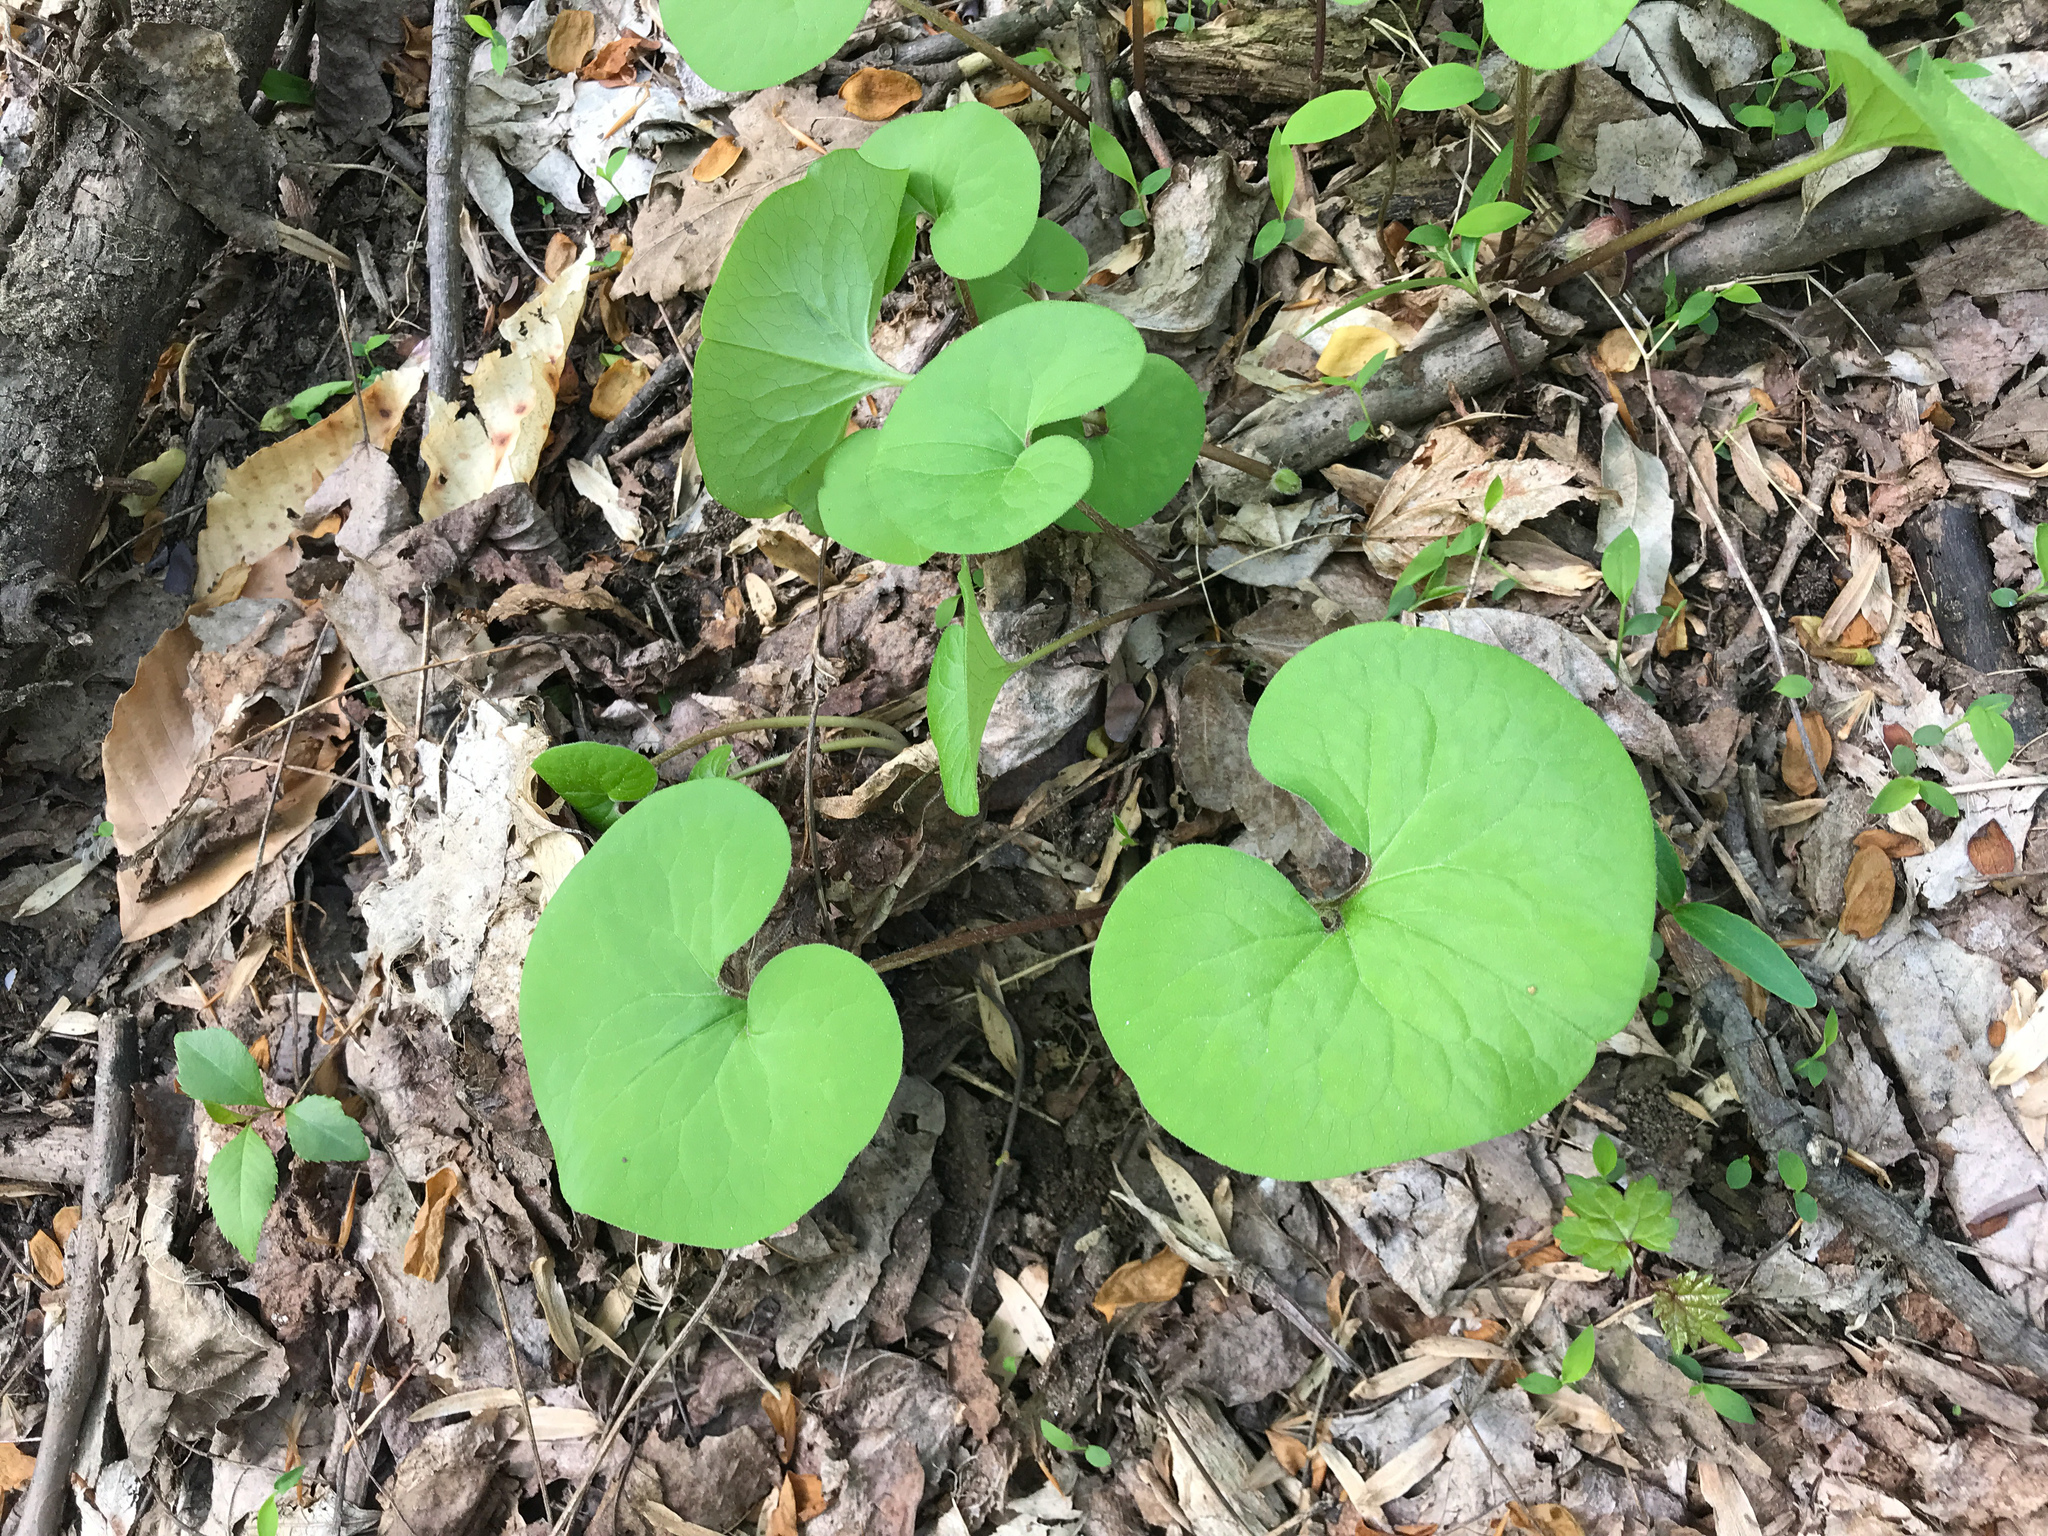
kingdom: Plantae
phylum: Tracheophyta
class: Magnoliopsida
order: Piperales
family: Aristolochiaceae
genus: Asarum
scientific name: Asarum canadense
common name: Wild ginger
